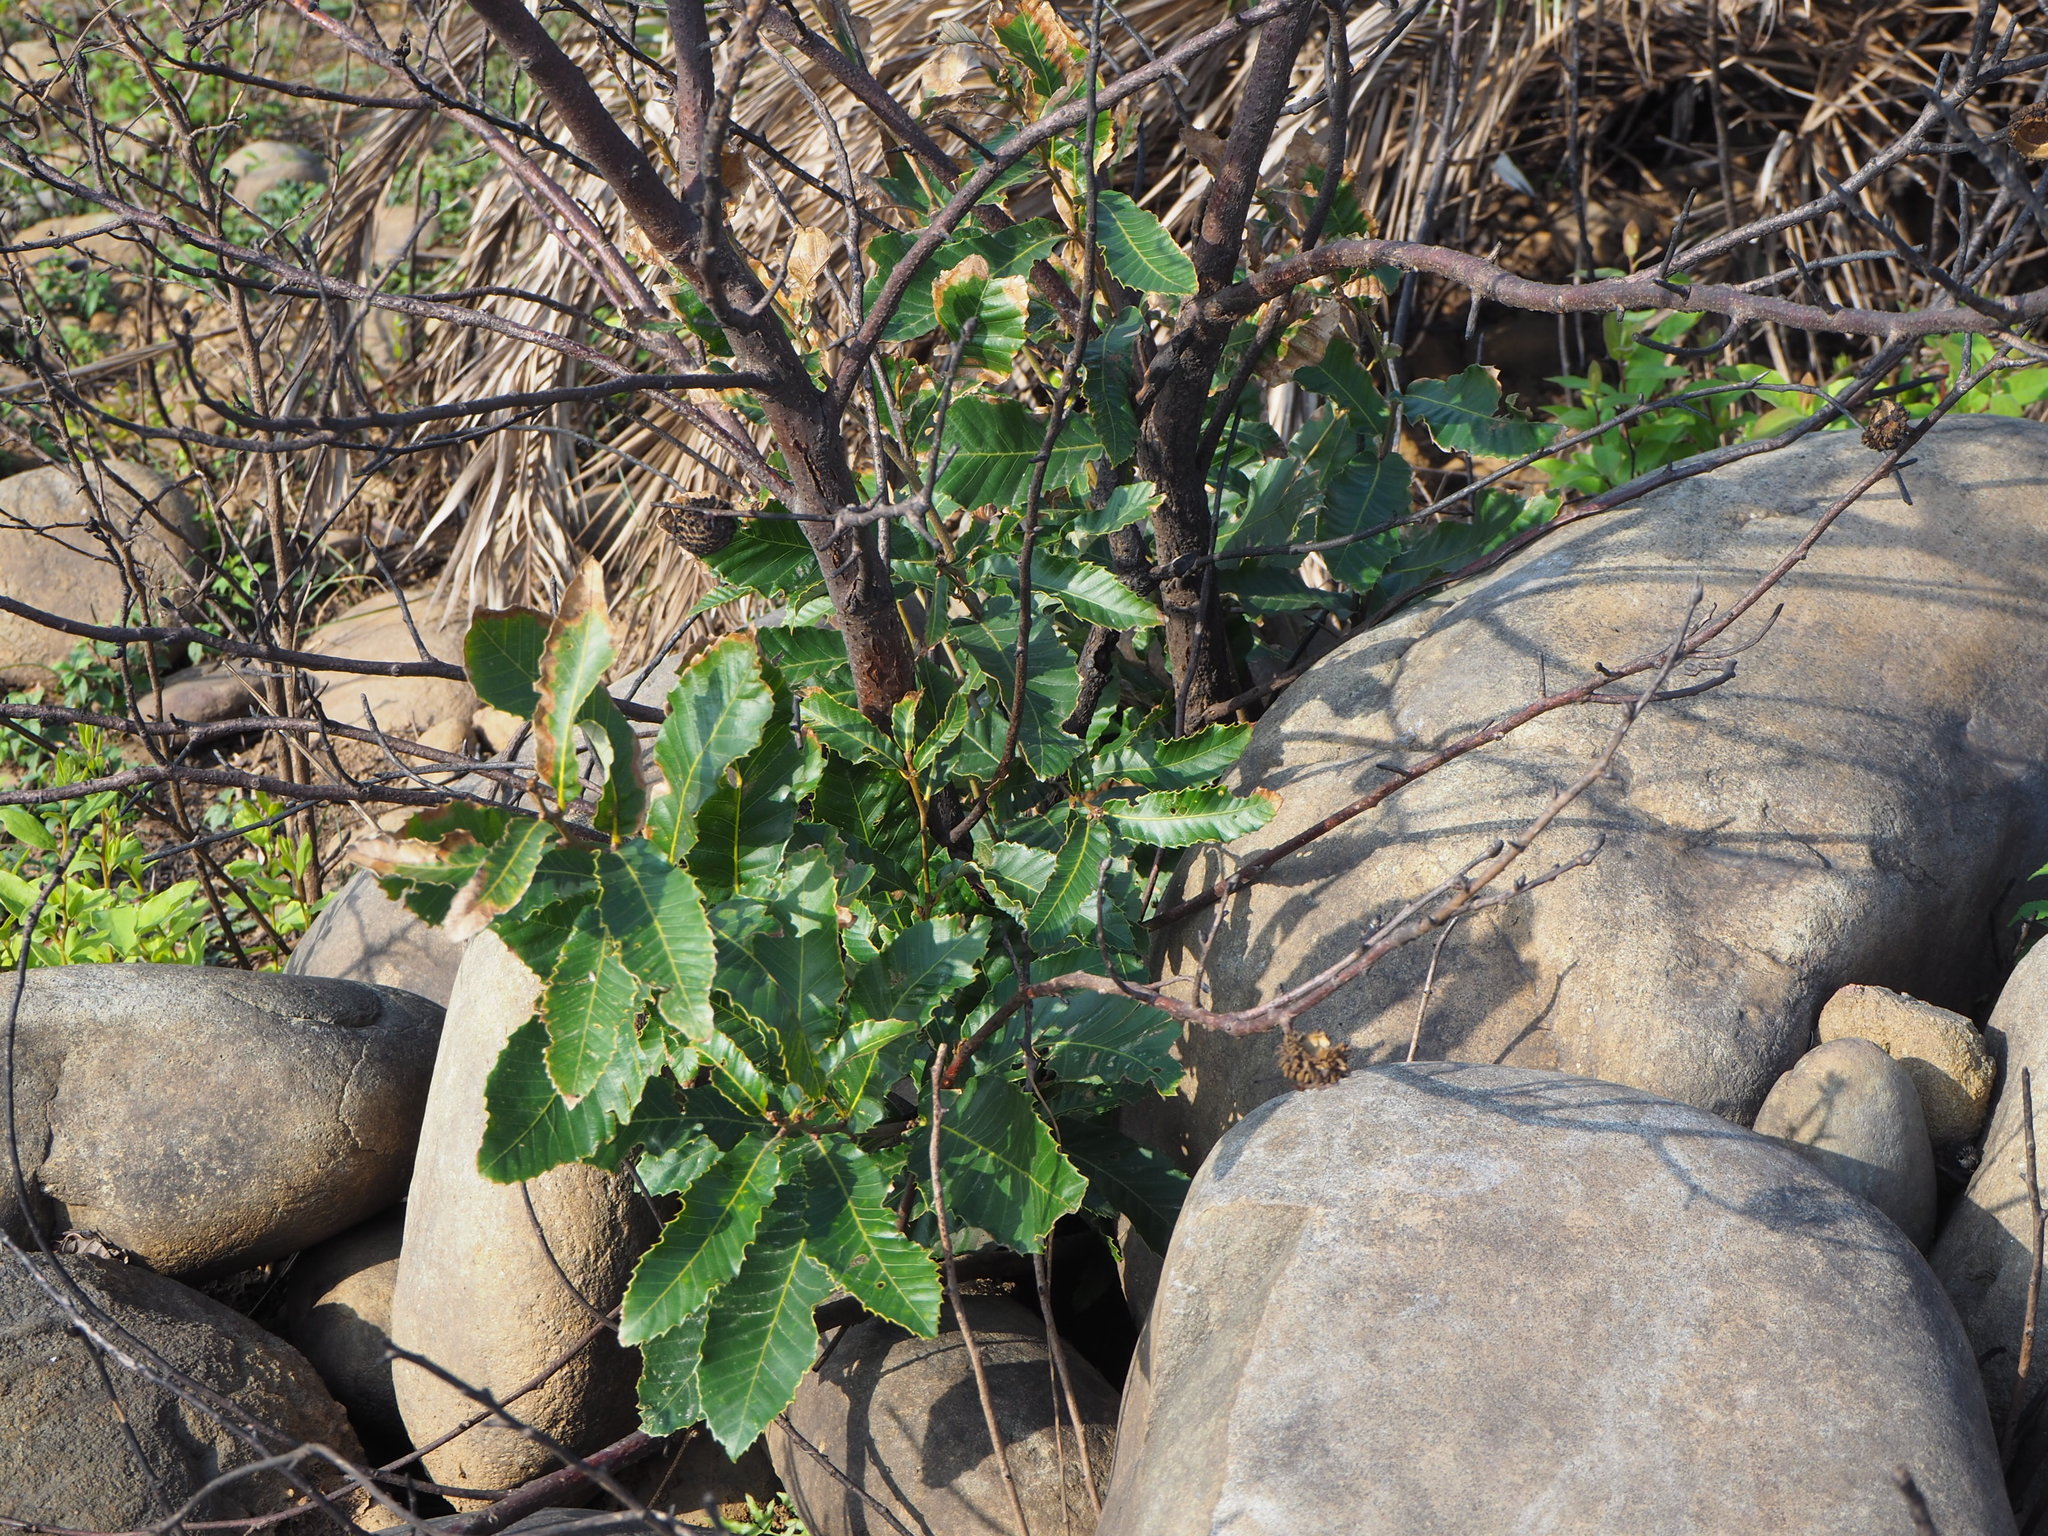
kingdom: Plantae
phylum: Tracheophyta
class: Magnoliopsida
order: Fagales
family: Fagaceae
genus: Quercus
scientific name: Quercus variabilis
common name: Chinese cork oak
